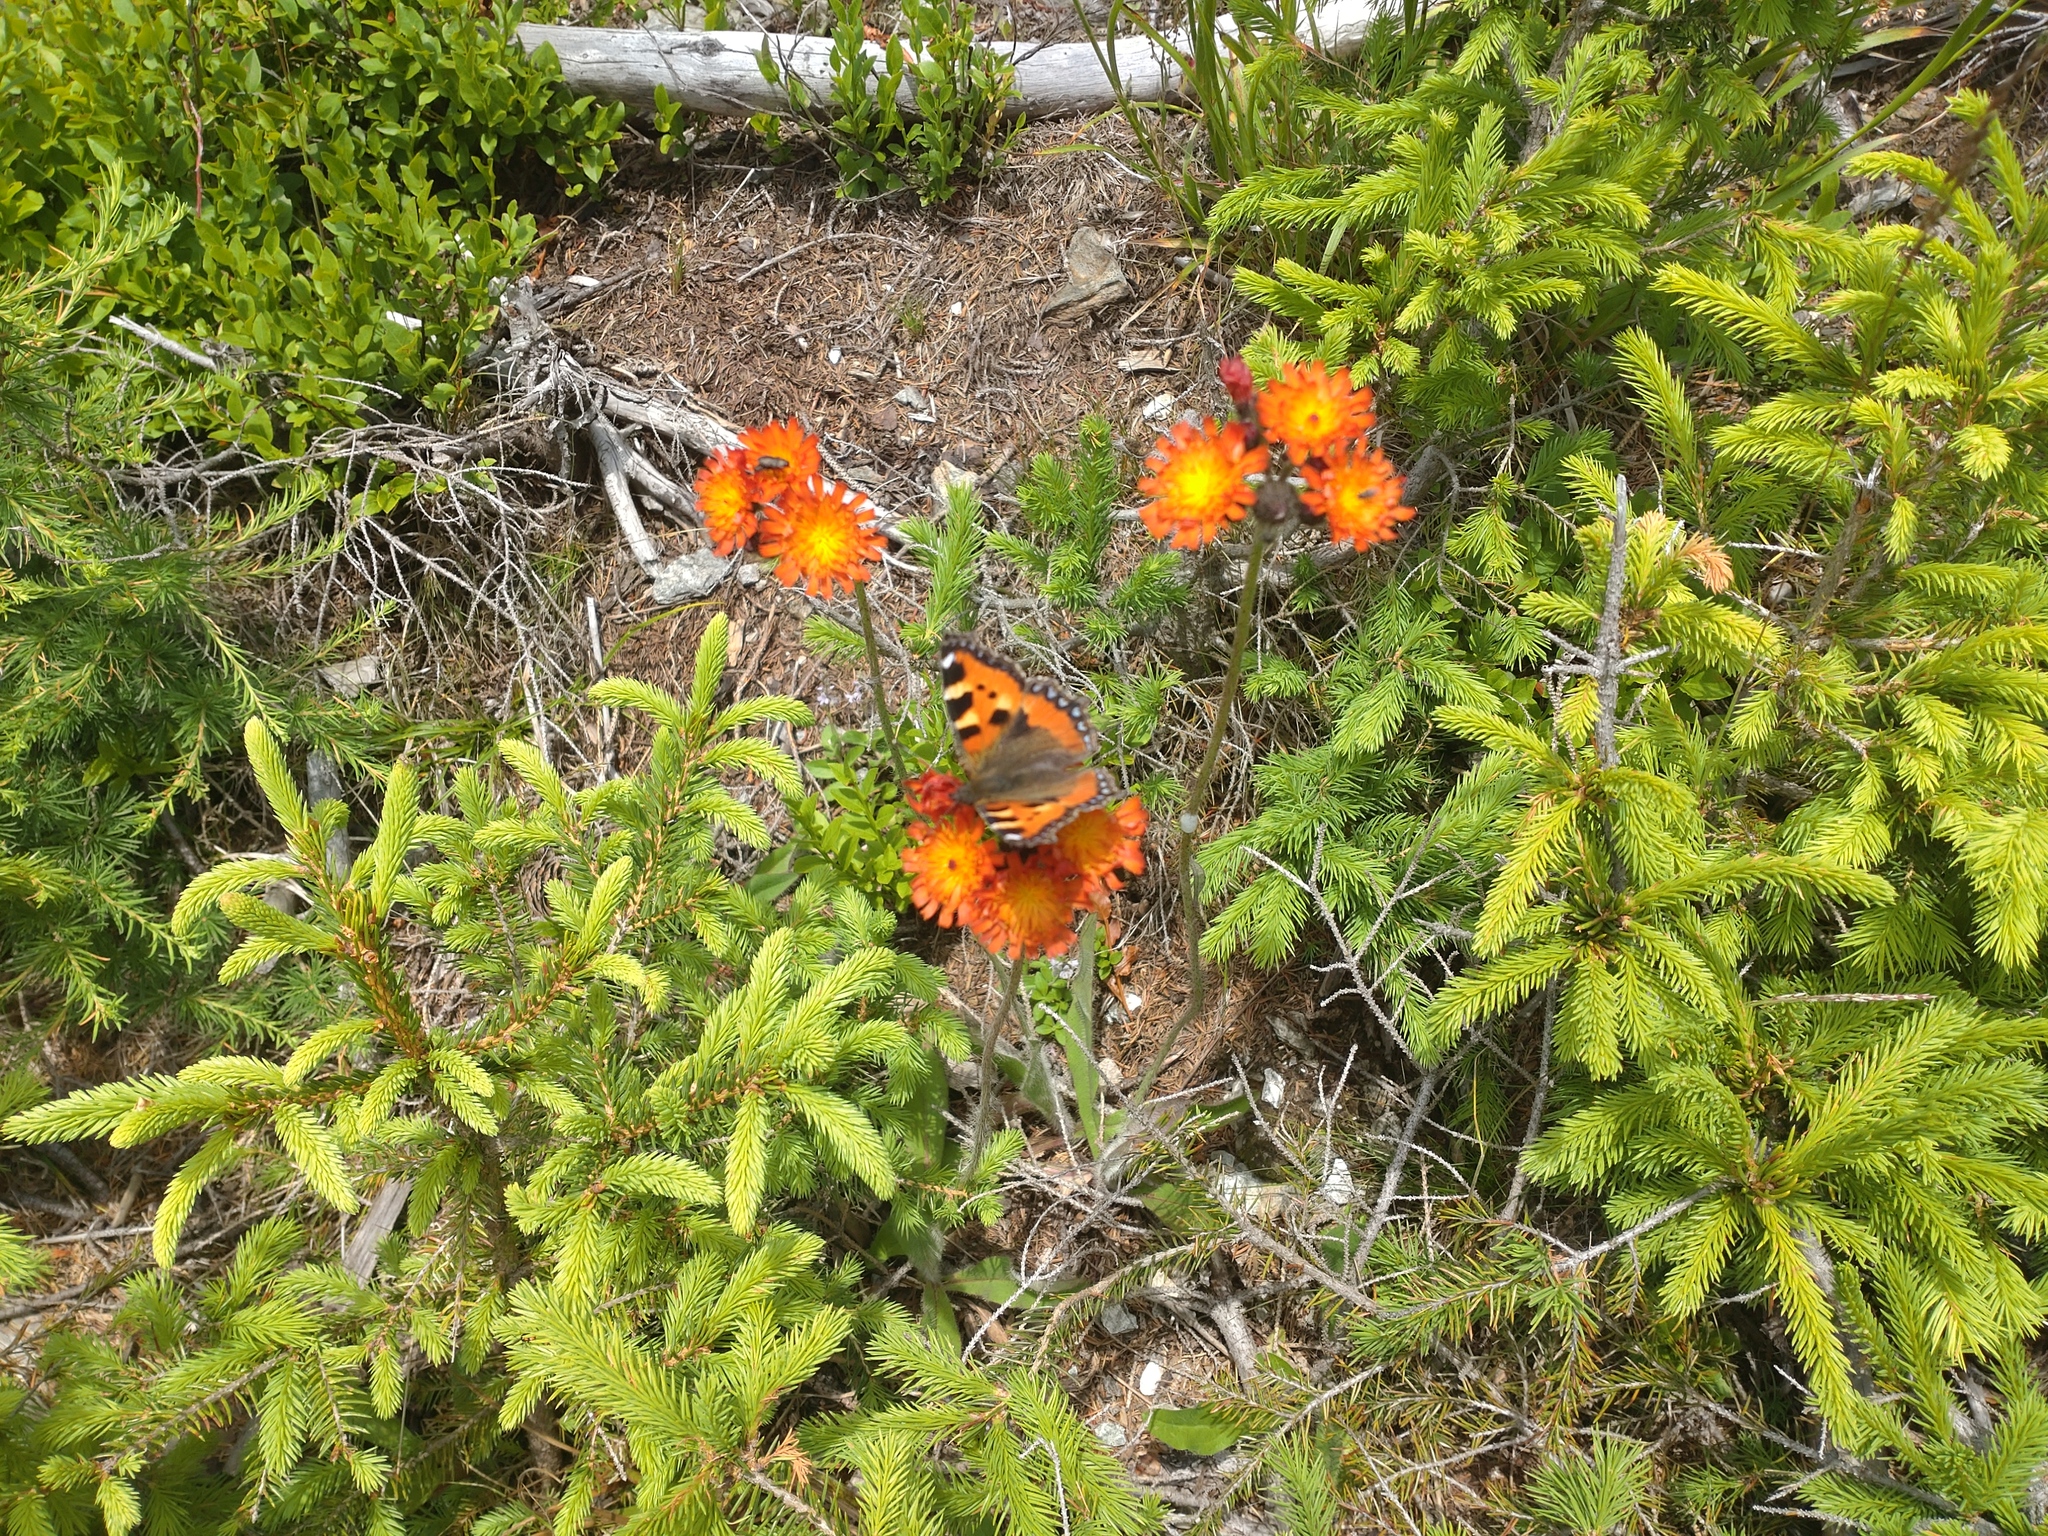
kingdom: Animalia
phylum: Arthropoda
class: Insecta
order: Lepidoptera
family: Nymphalidae
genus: Aglais
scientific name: Aglais urticae
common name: Small tortoiseshell
